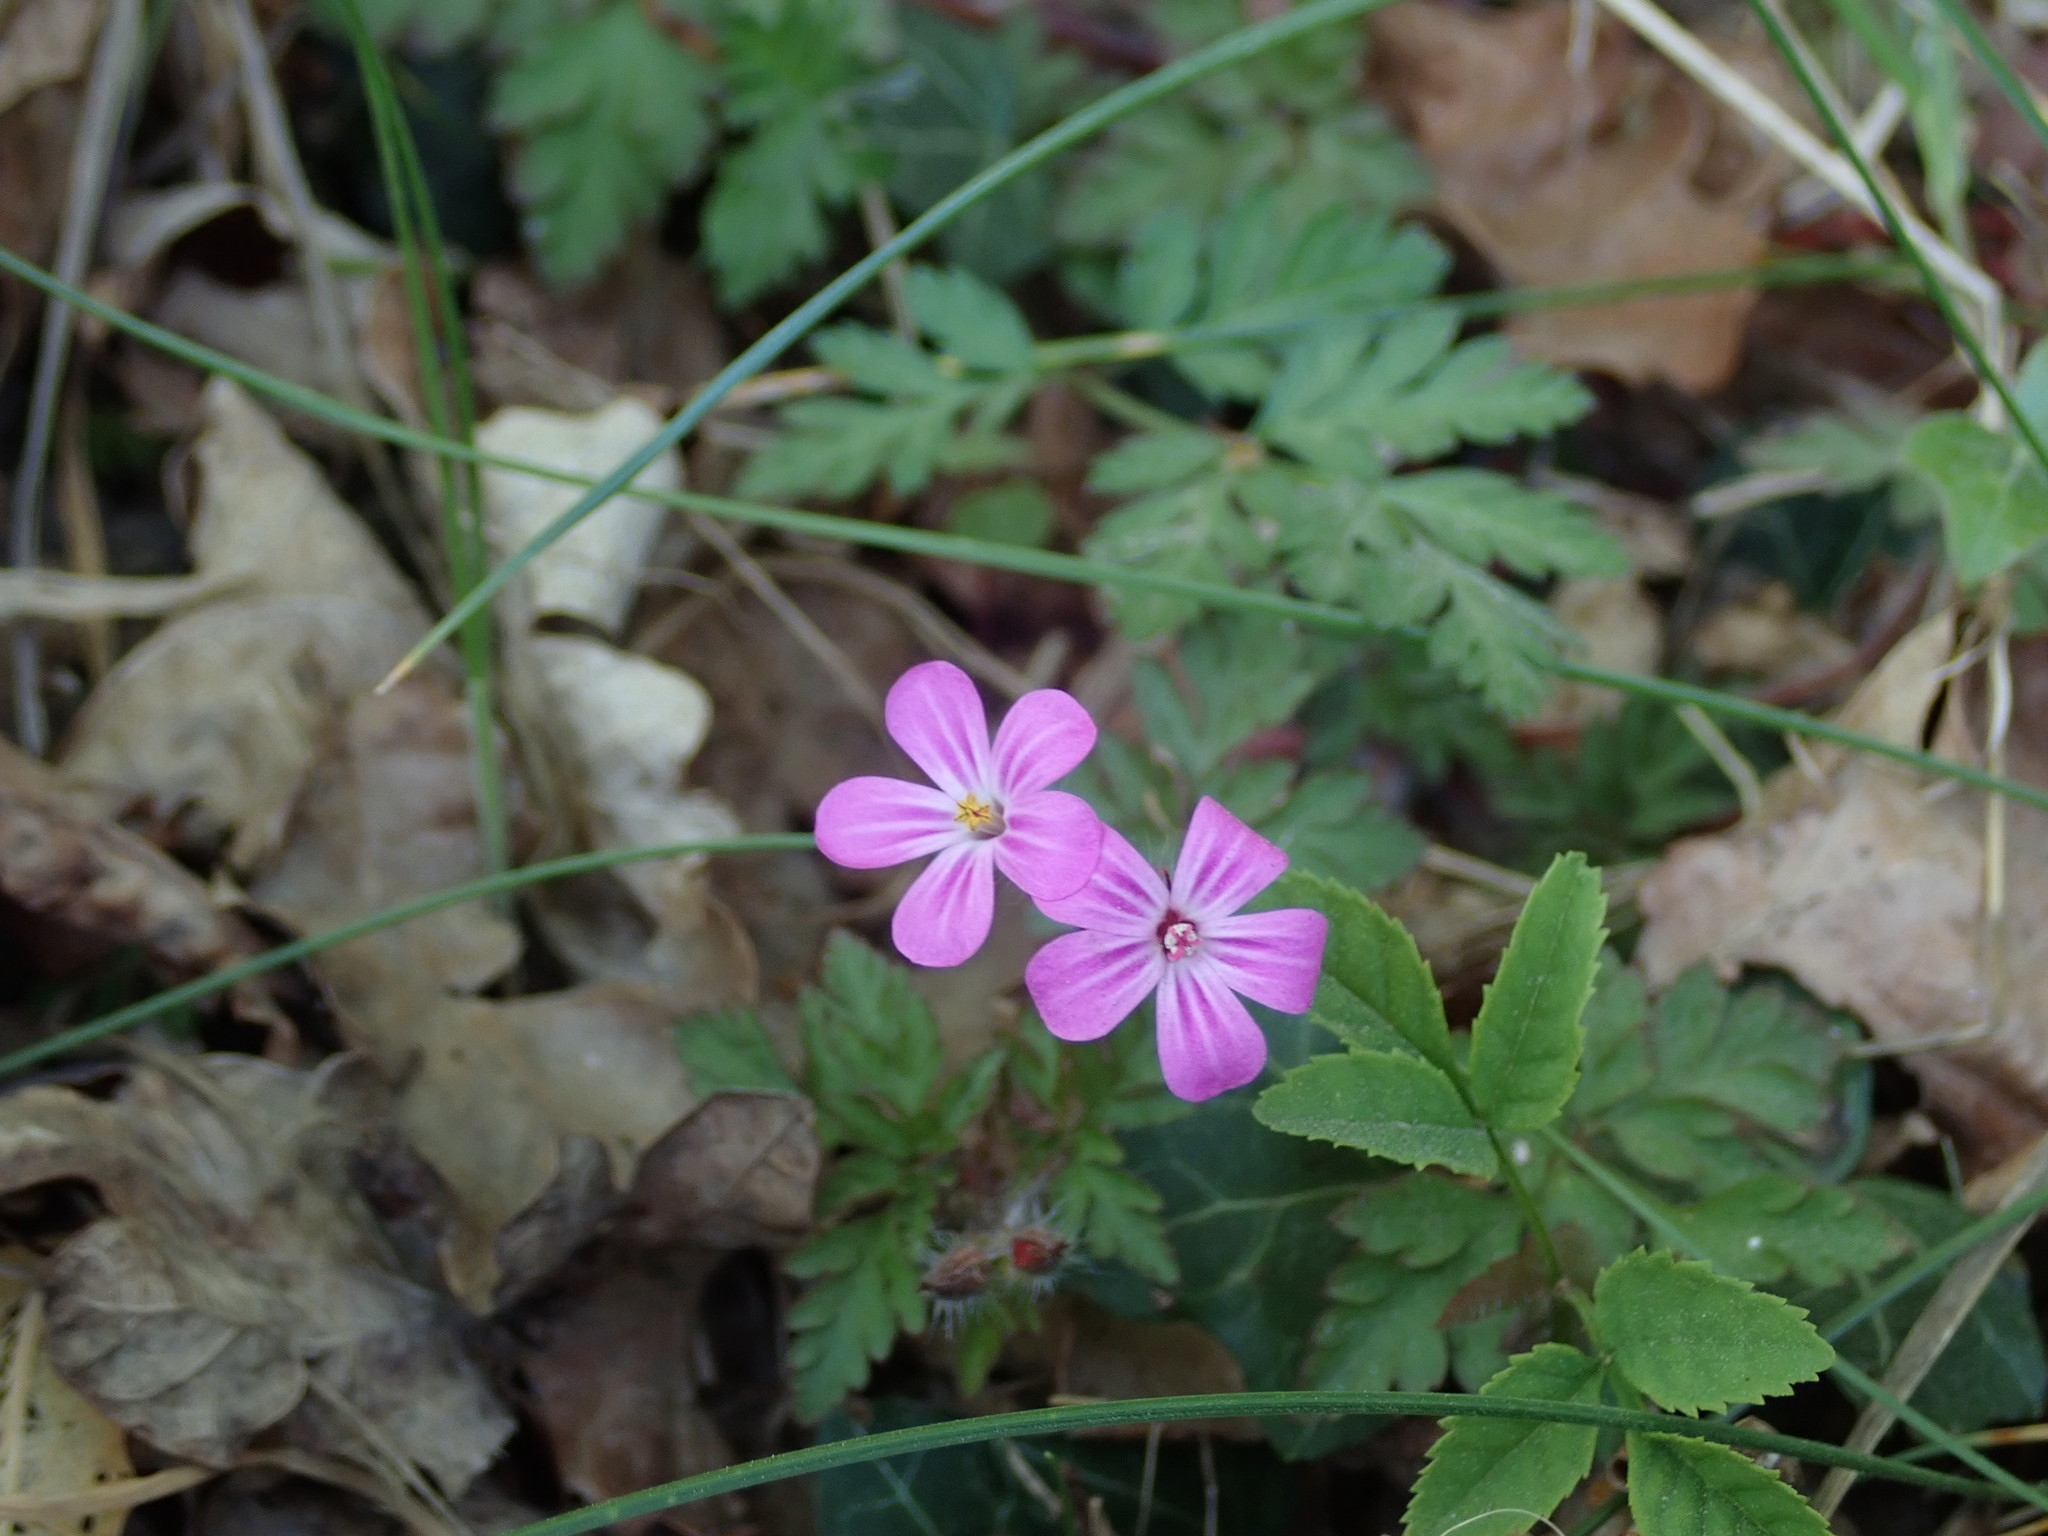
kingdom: Plantae
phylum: Tracheophyta
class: Magnoliopsida
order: Geraniales
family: Geraniaceae
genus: Geranium
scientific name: Geranium robertianum
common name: Herb-robert
